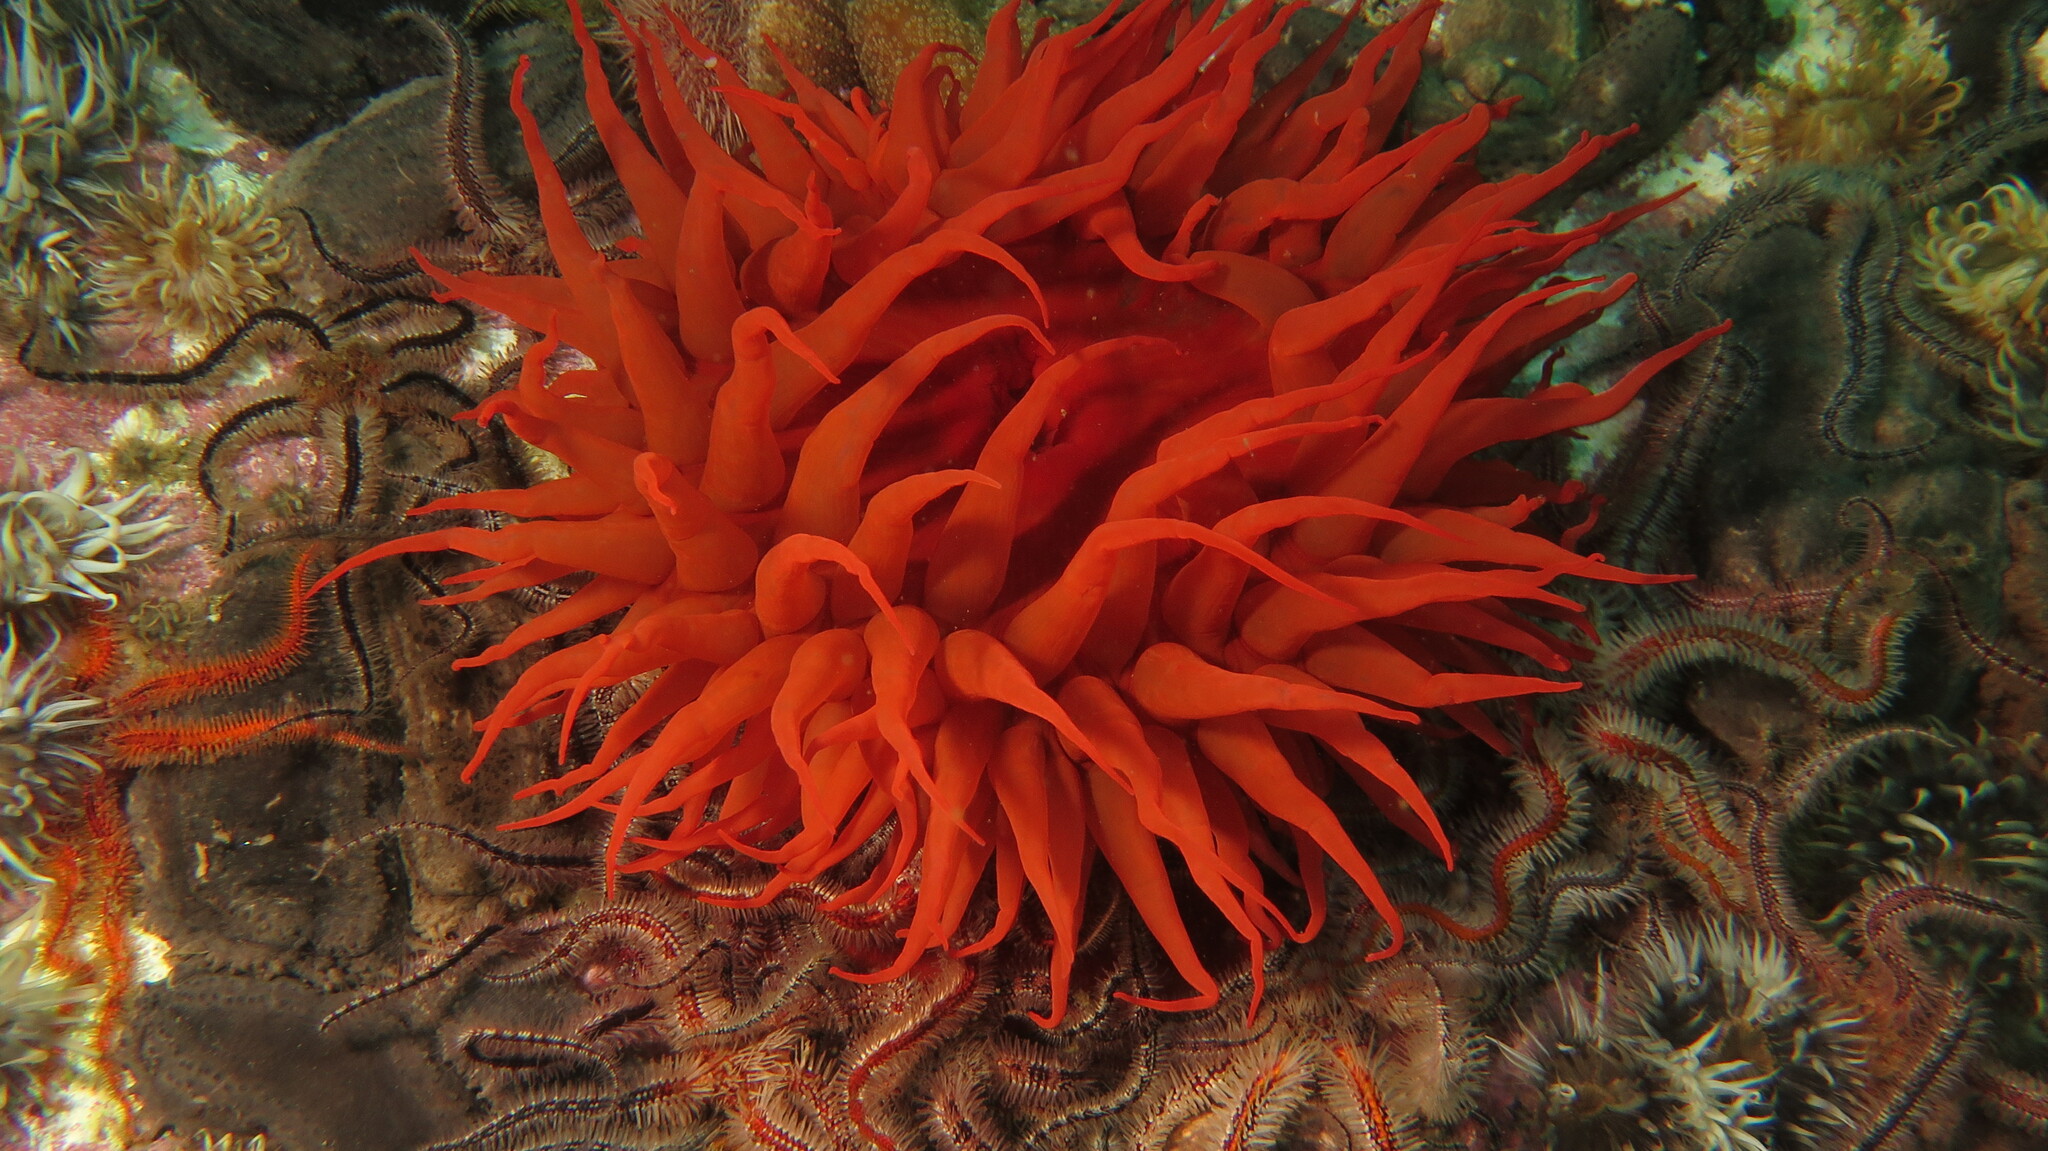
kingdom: Animalia
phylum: Cnidaria
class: Anthozoa
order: Actiniaria
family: Actiniidae
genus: Pseudactinia
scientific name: Pseudactinia flagellifera
